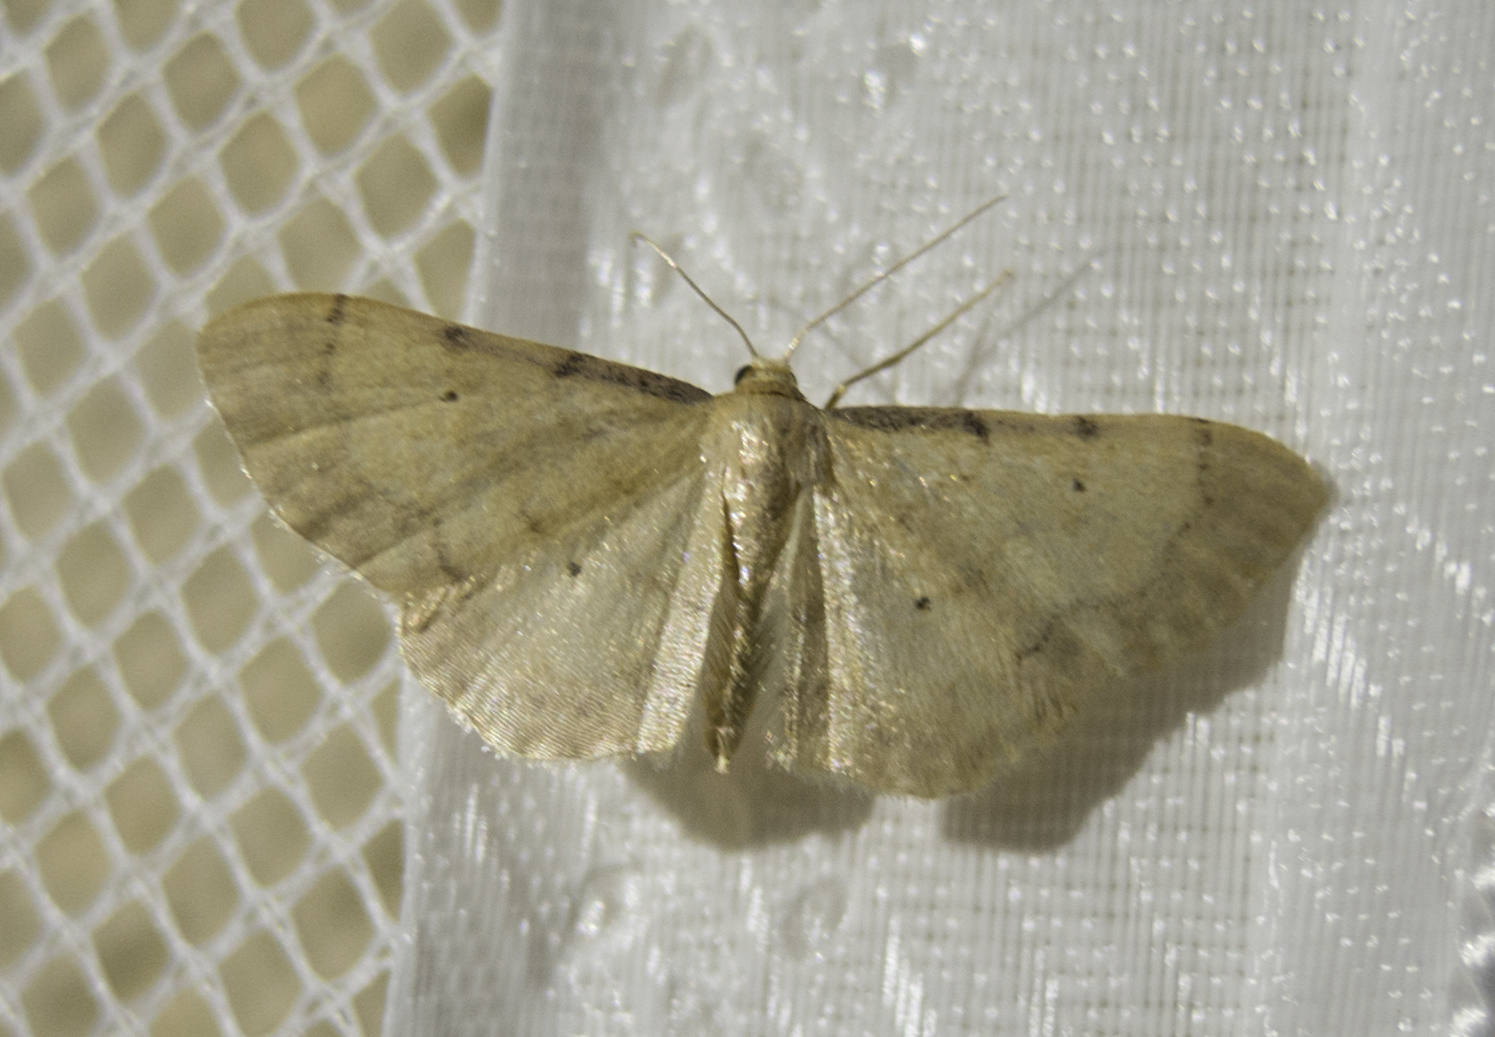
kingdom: Animalia
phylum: Arthropoda
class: Insecta
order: Lepidoptera
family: Geometridae
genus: Idaea
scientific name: Idaea politaria
